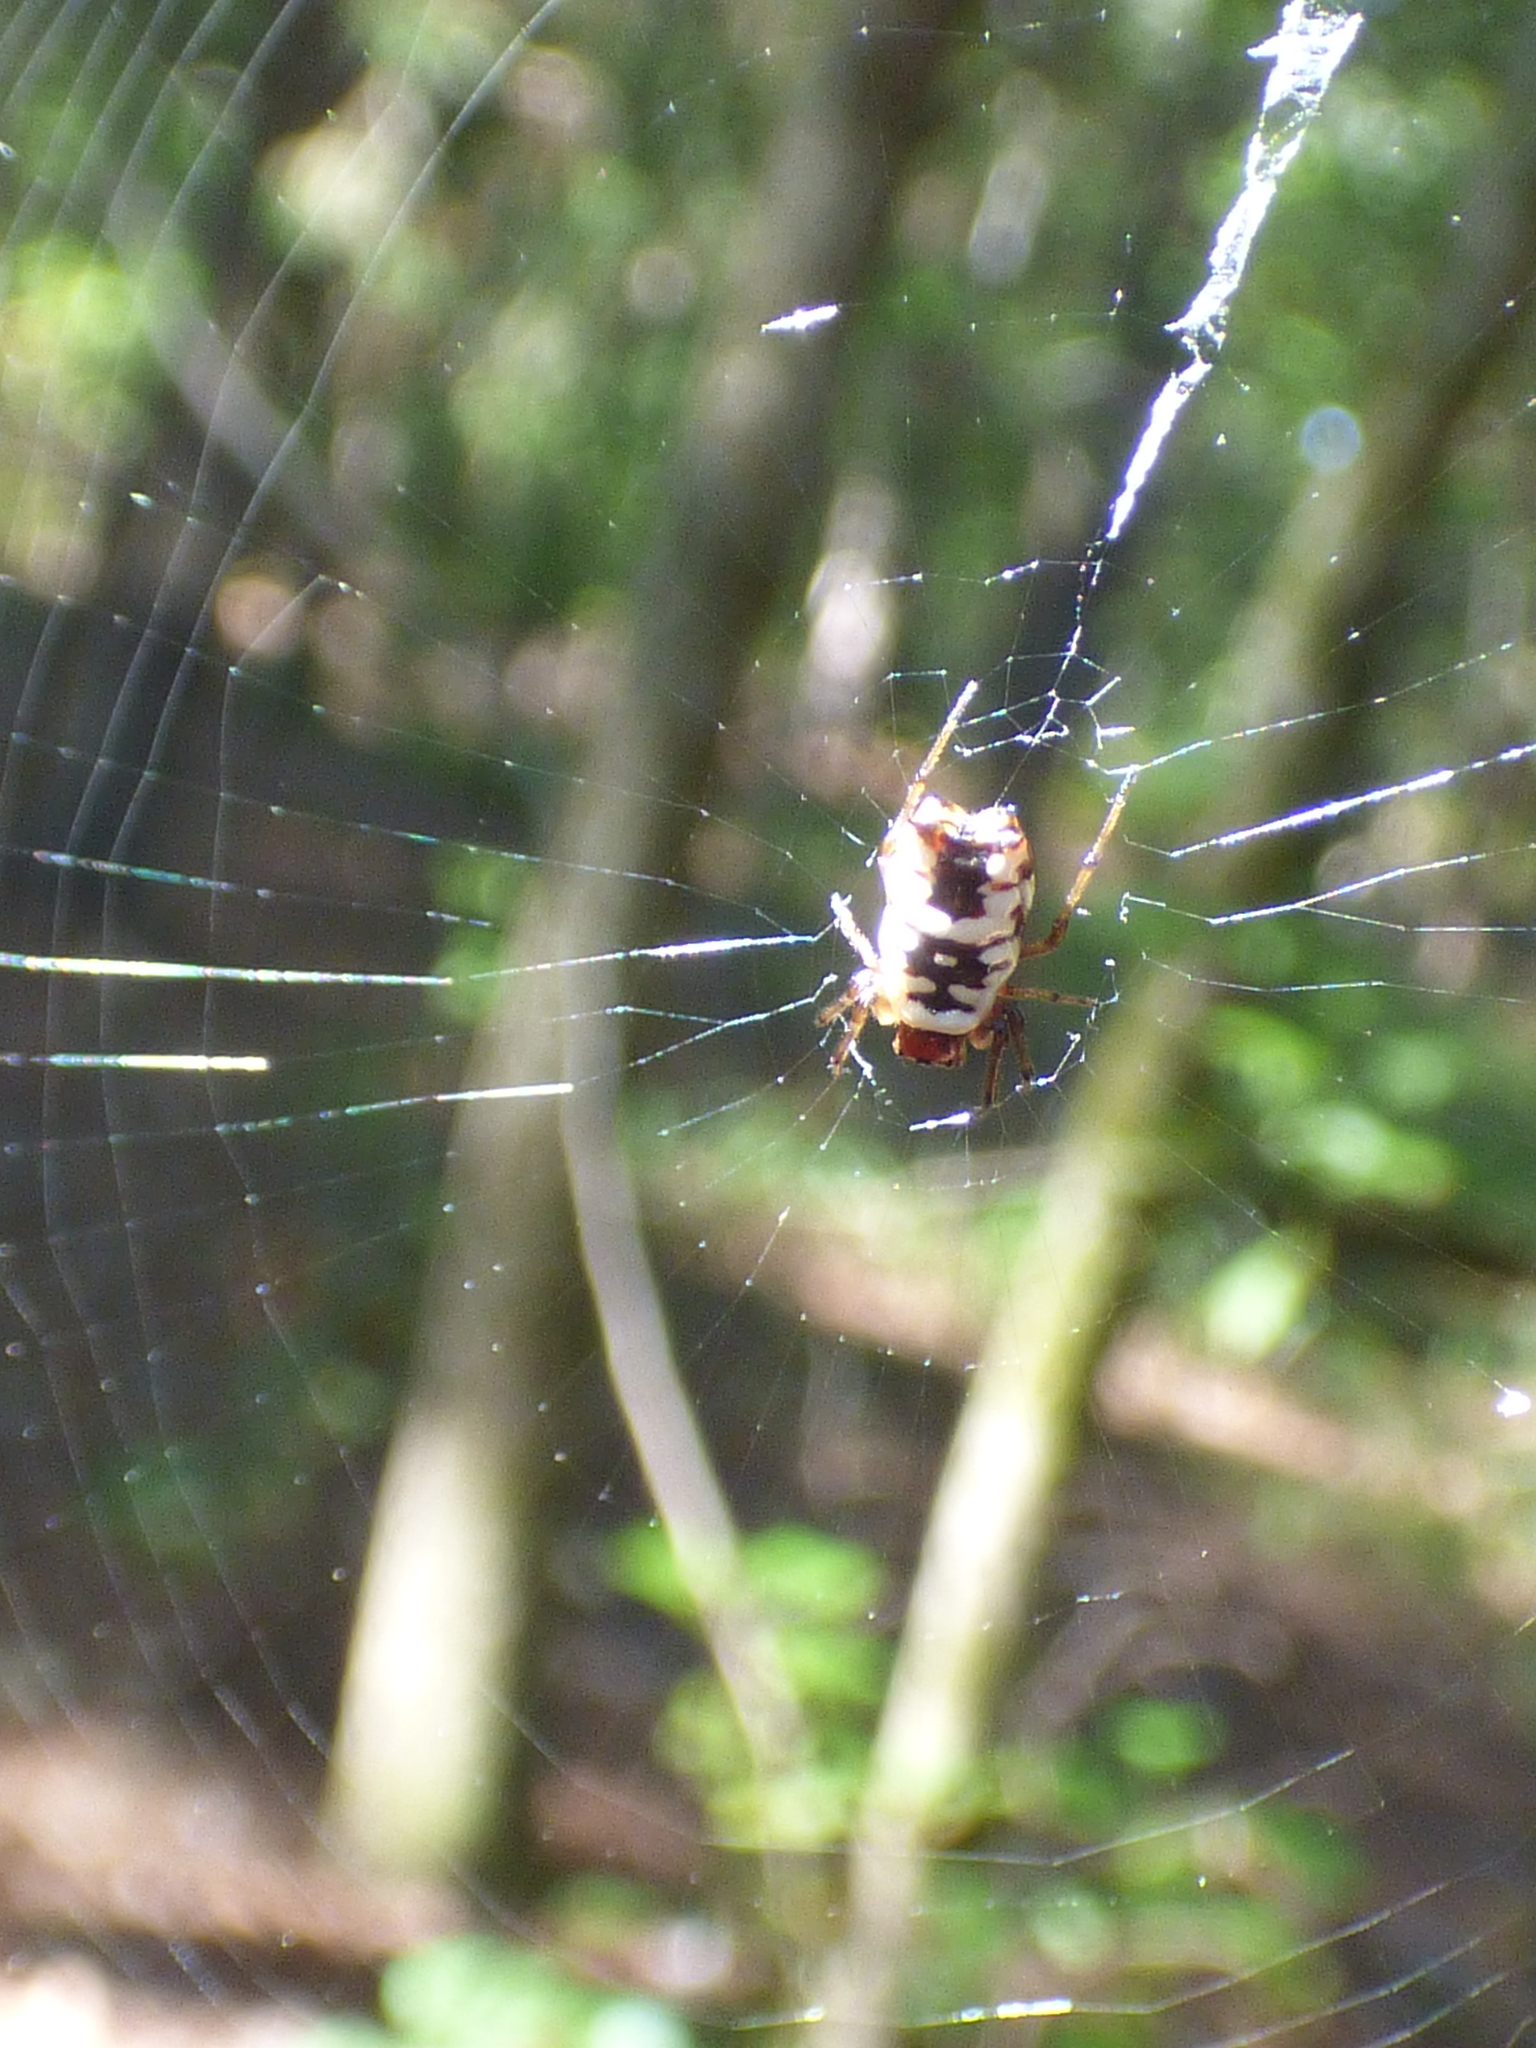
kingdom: Animalia
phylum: Arthropoda
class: Arachnida
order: Araneae
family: Araneidae
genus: Micrathena
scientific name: Micrathena mitrata
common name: Orb weavers
